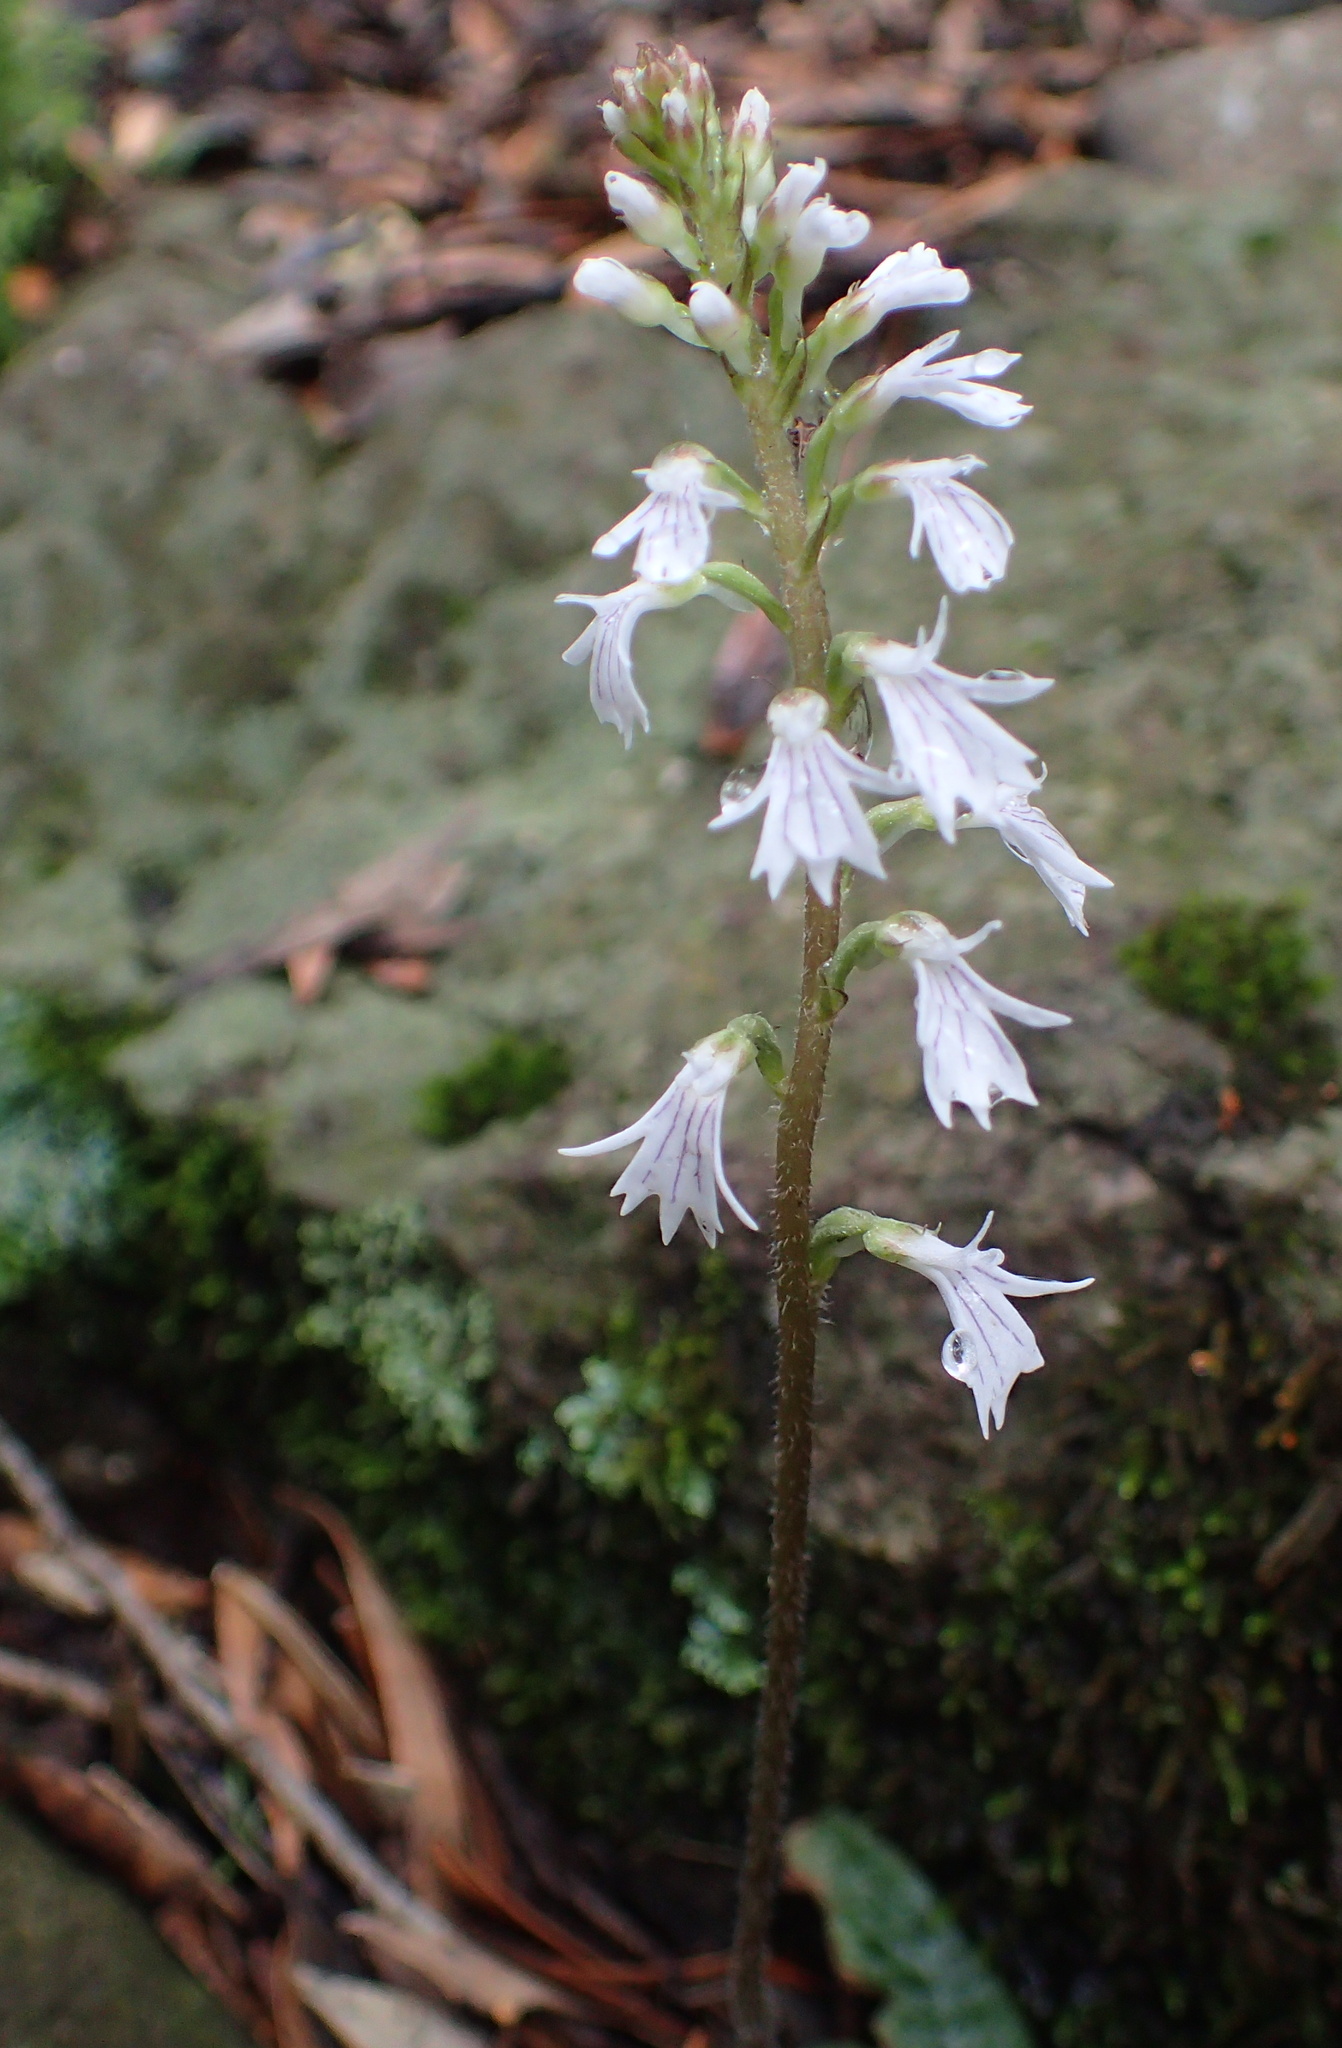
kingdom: Plantae
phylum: Tracheophyta
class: Liliopsida
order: Asparagales
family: Orchidaceae
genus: Holothrix
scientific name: Holothrix orthoceras
